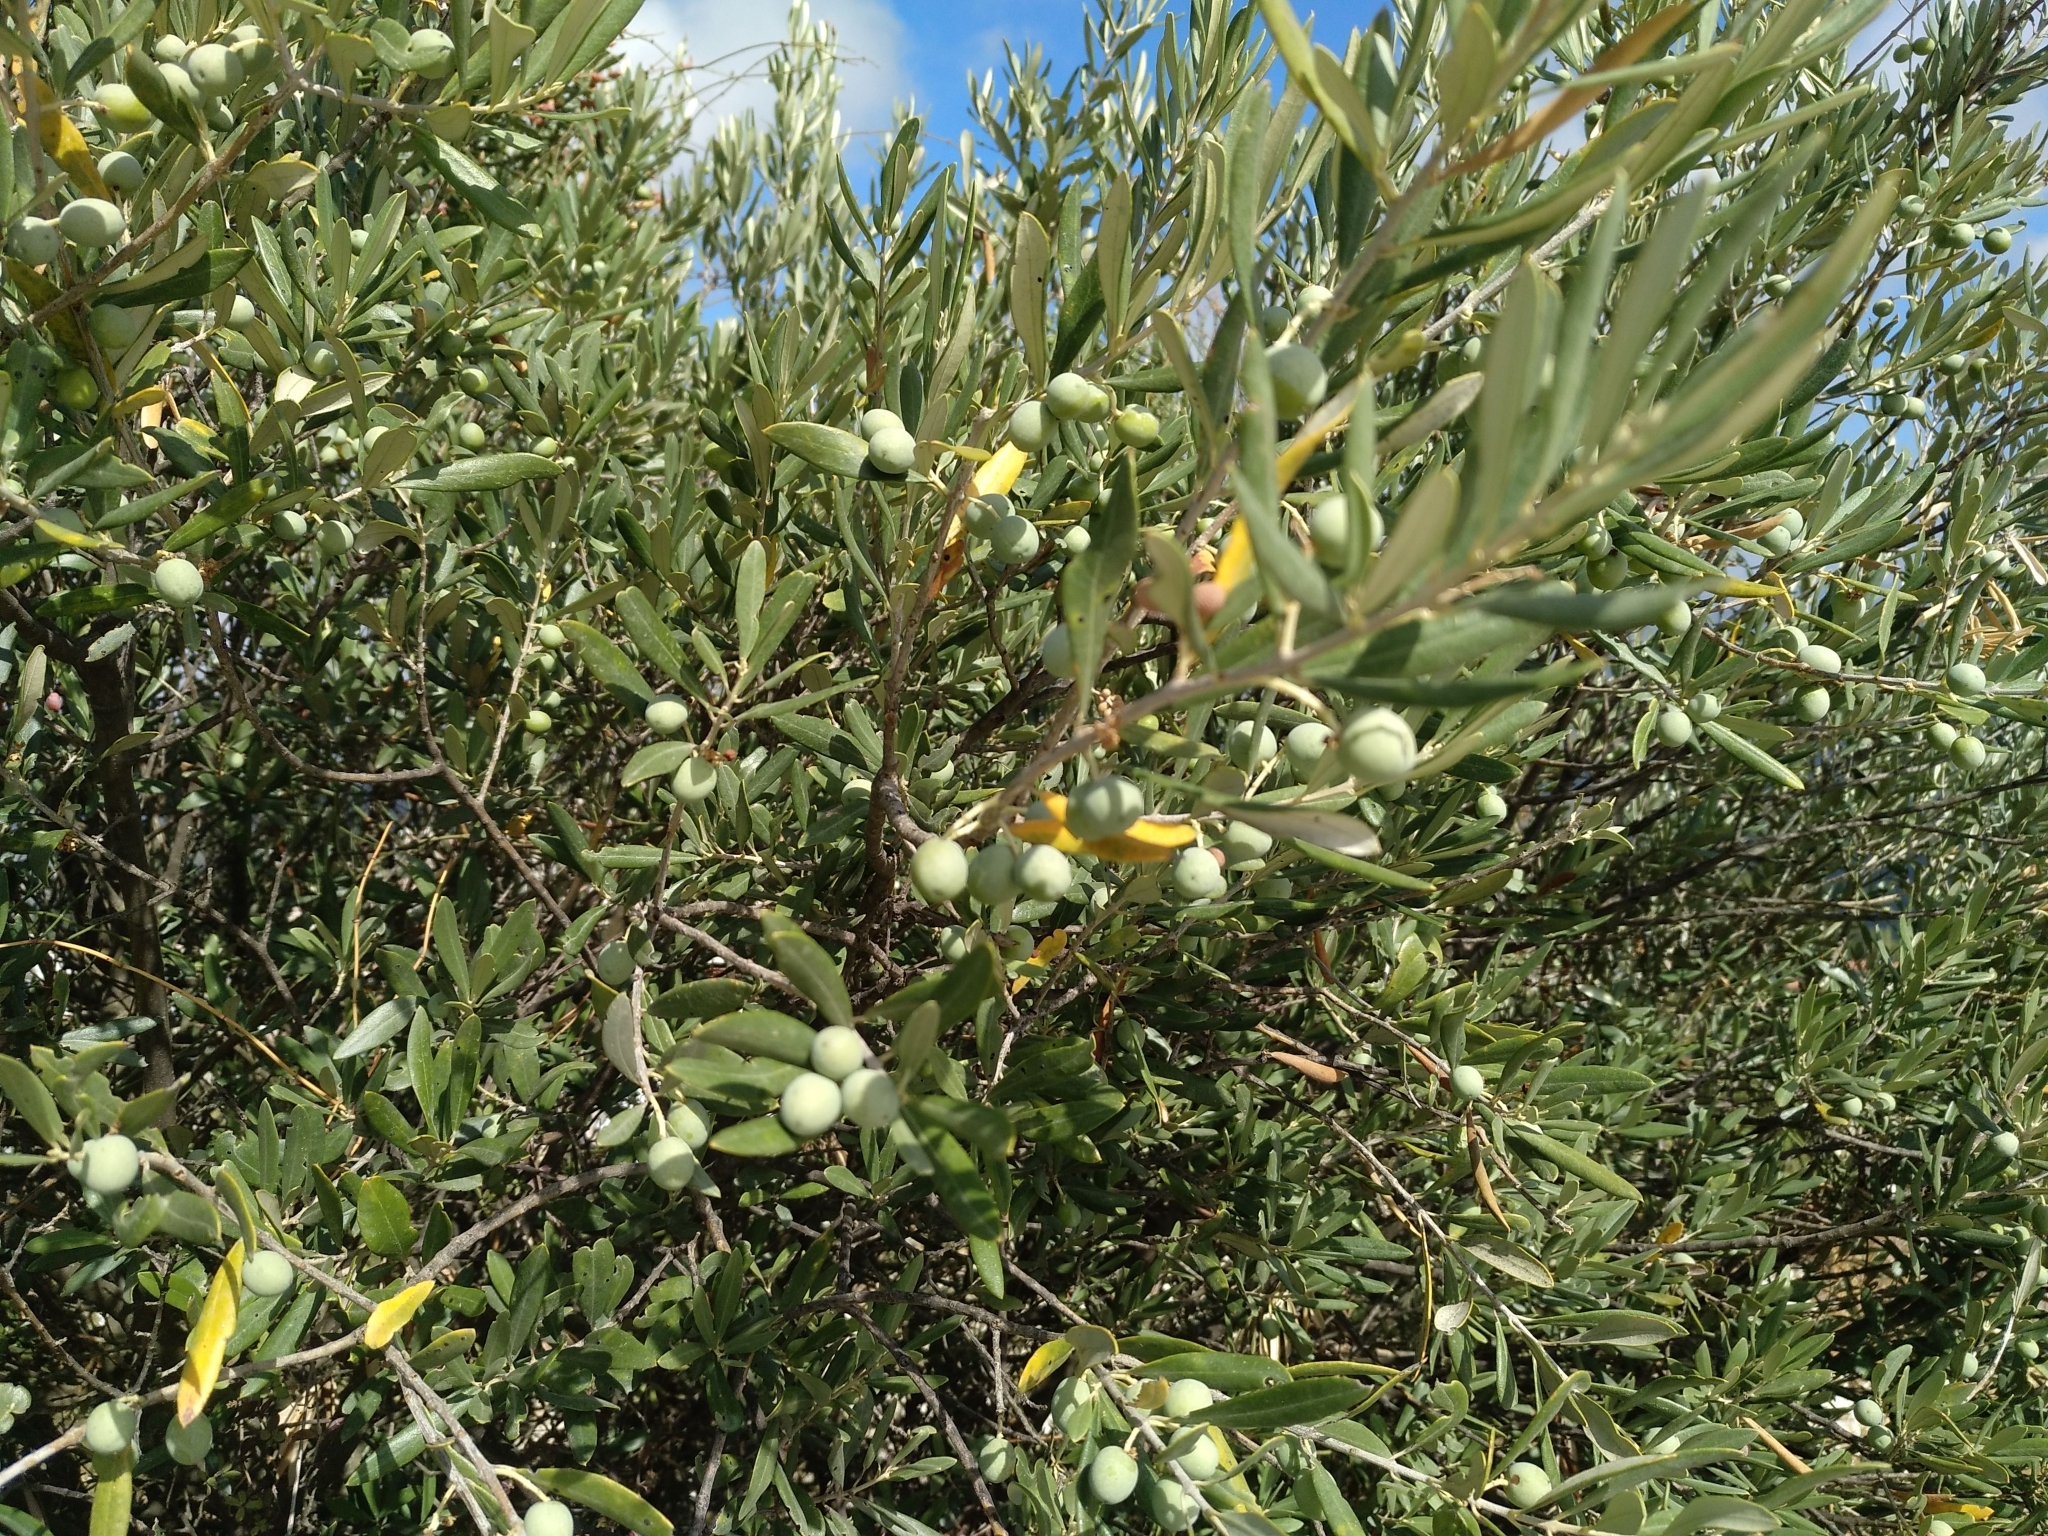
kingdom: Plantae
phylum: Tracheophyta
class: Magnoliopsida
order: Lamiales
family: Oleaceae
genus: Olea
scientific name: Olea europaea
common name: Olive
